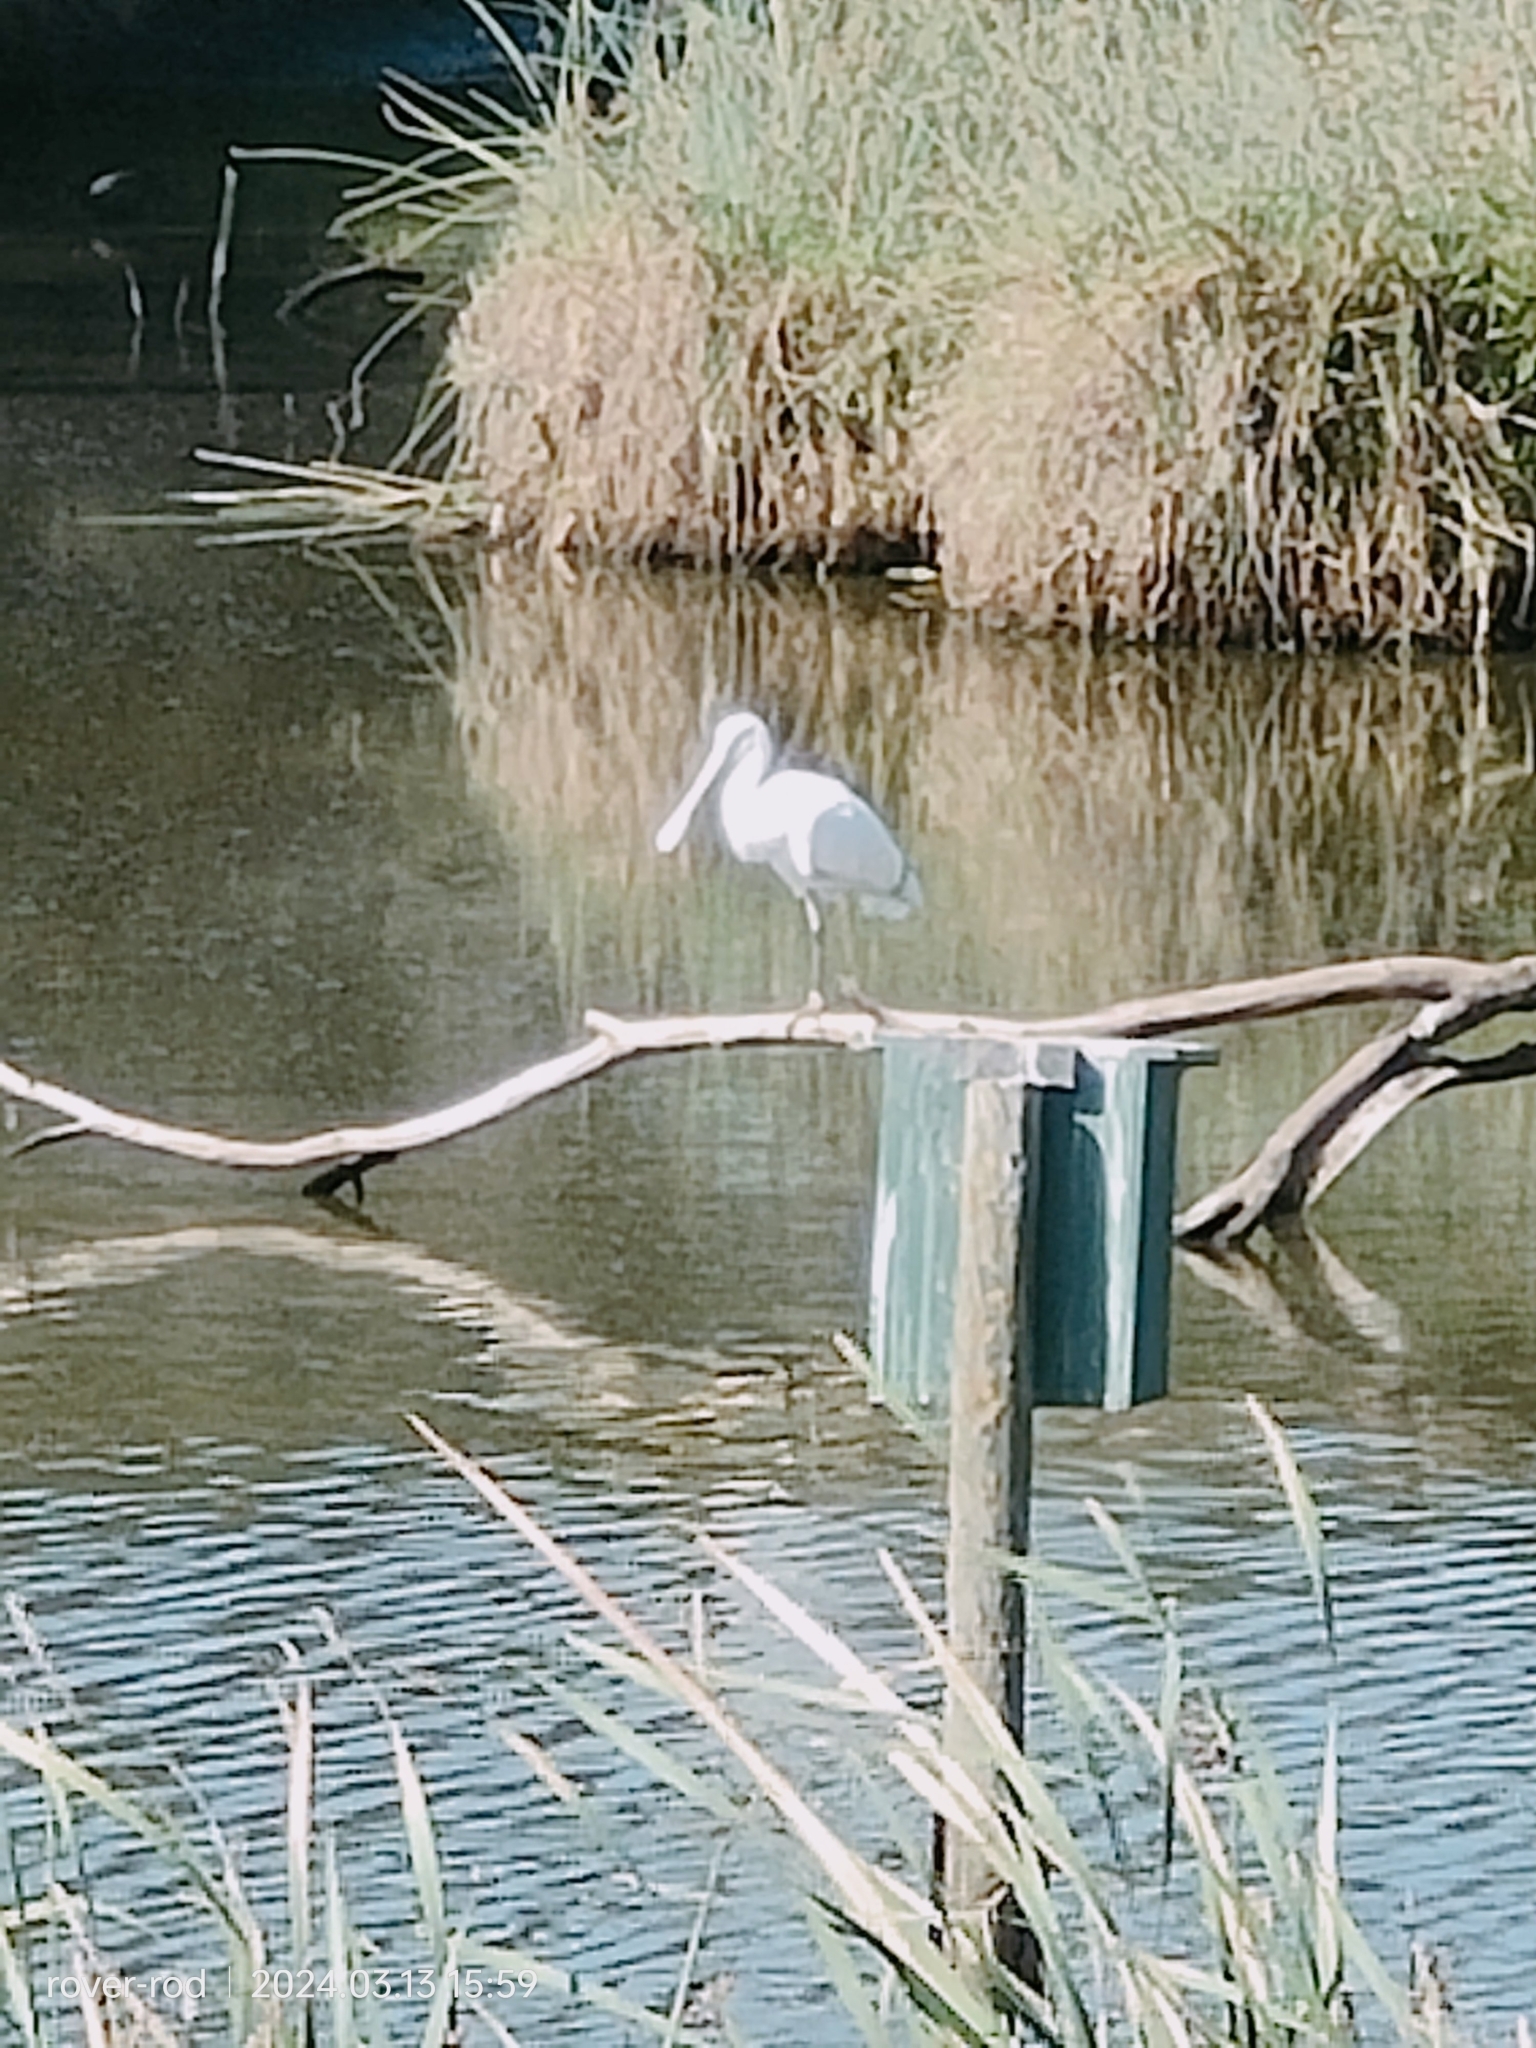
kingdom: Animalia
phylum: Chordata
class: Aves
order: Pelecaniformes
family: Threskiornithidae
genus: Platalea
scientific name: Platalea flavipes
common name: Yellow-billed spoonbill
